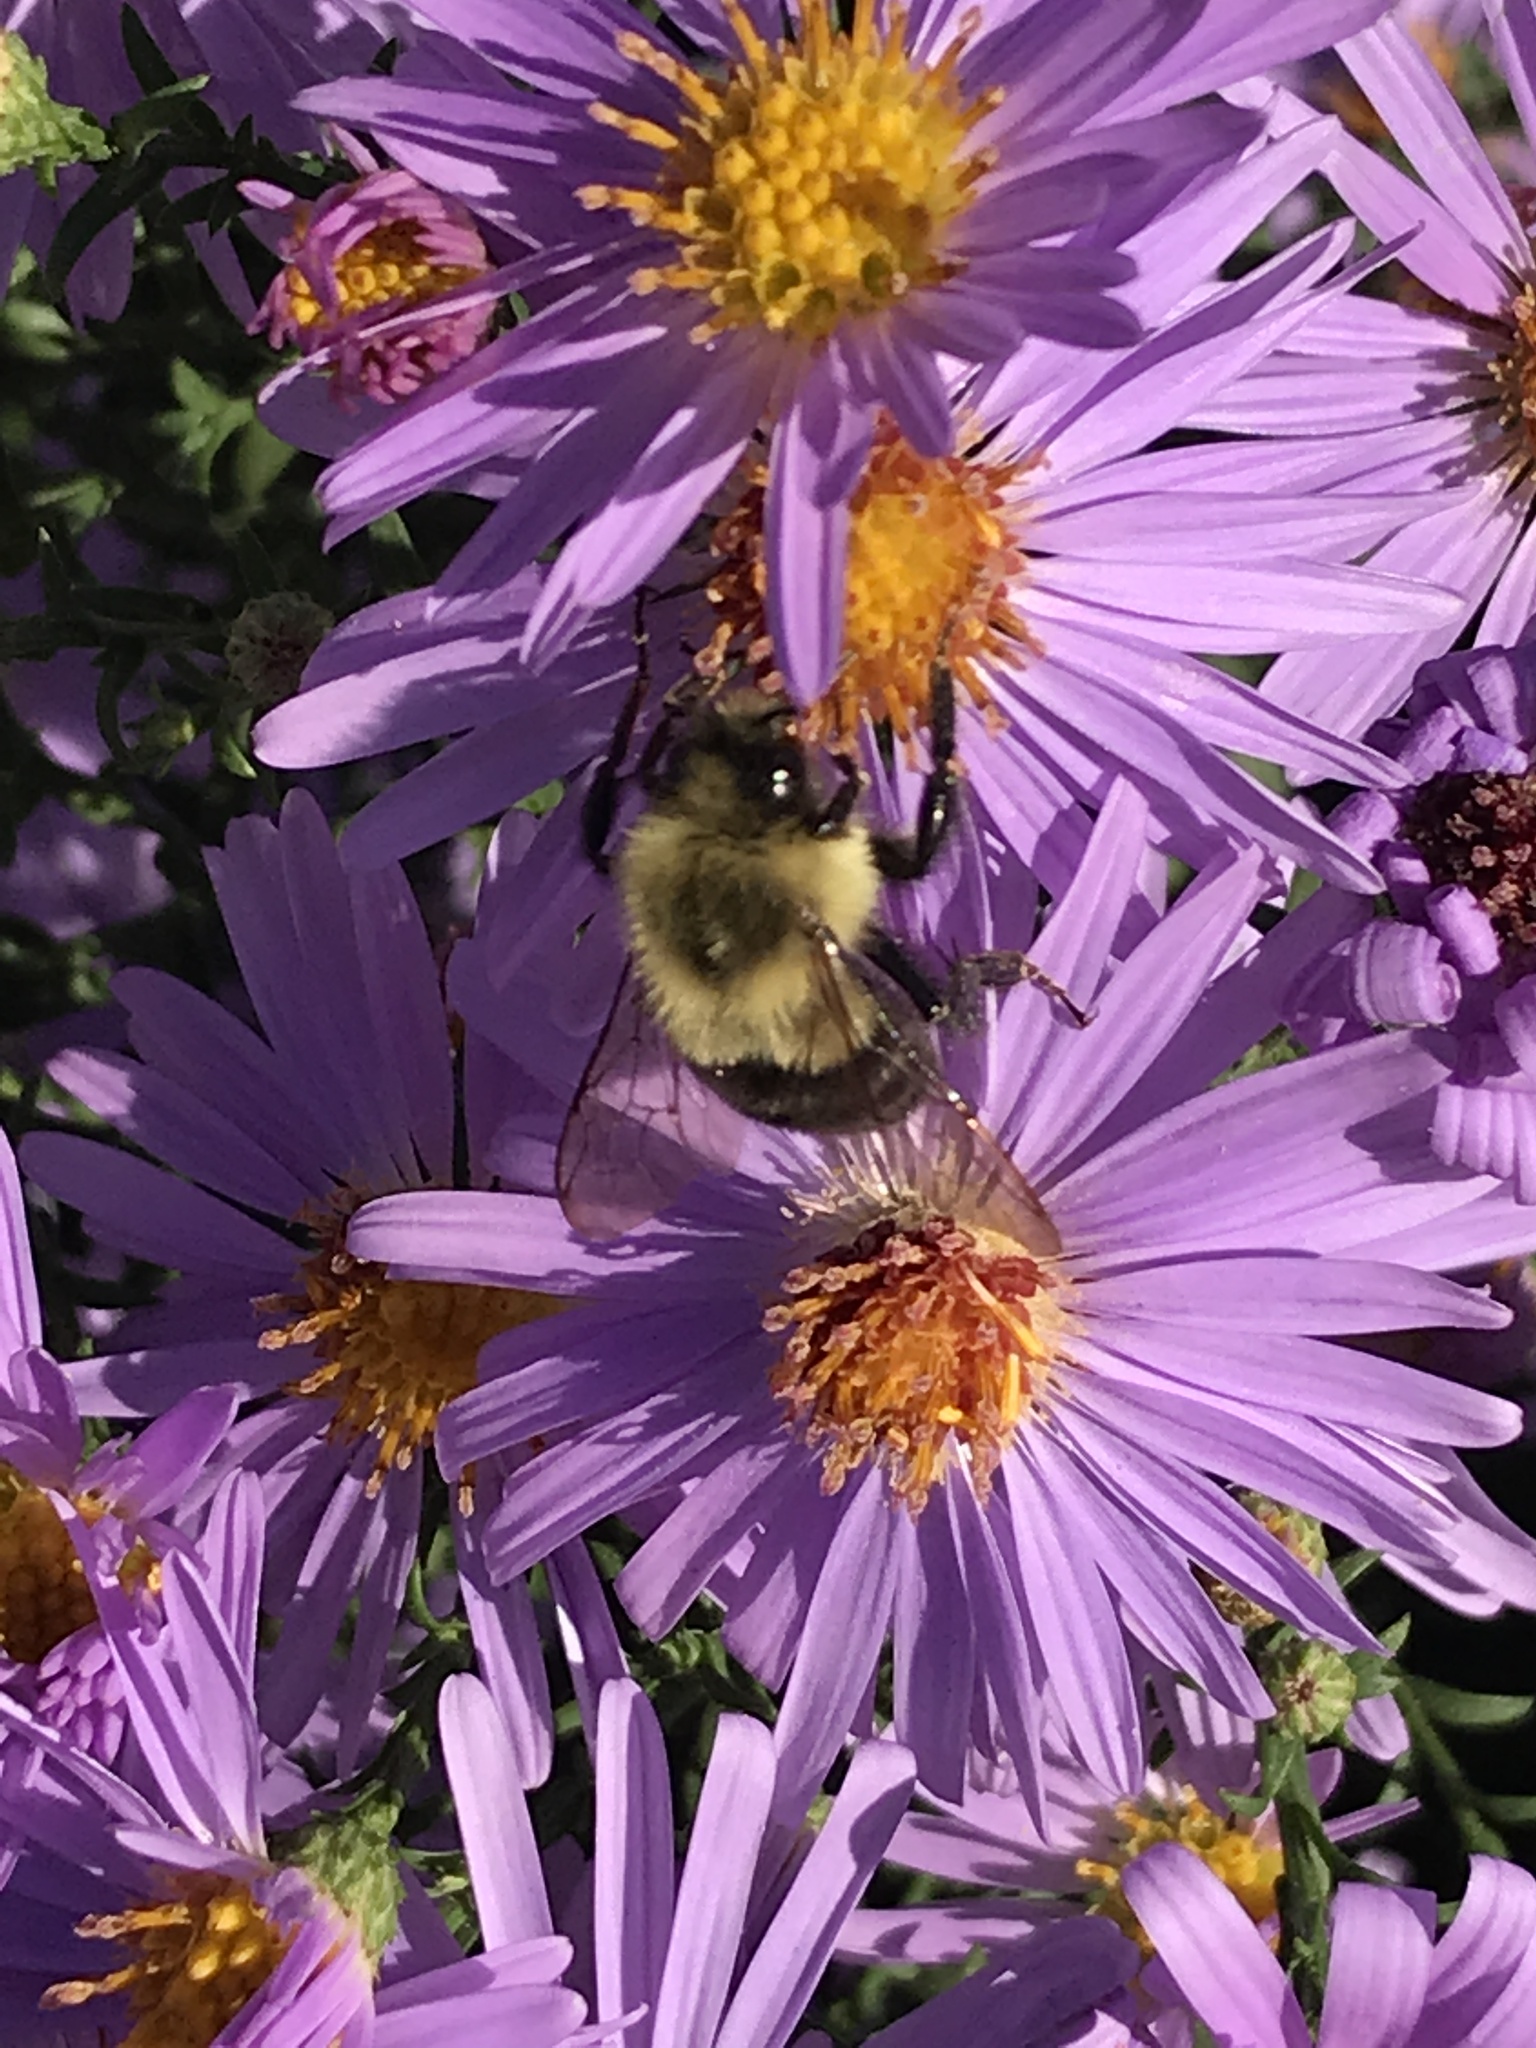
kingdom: Animalia
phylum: Arthropoda
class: Insecta
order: Hymenoptera
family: Apidae
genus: Bombus
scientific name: Bombus impatiens
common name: Common eastern bumble bee
